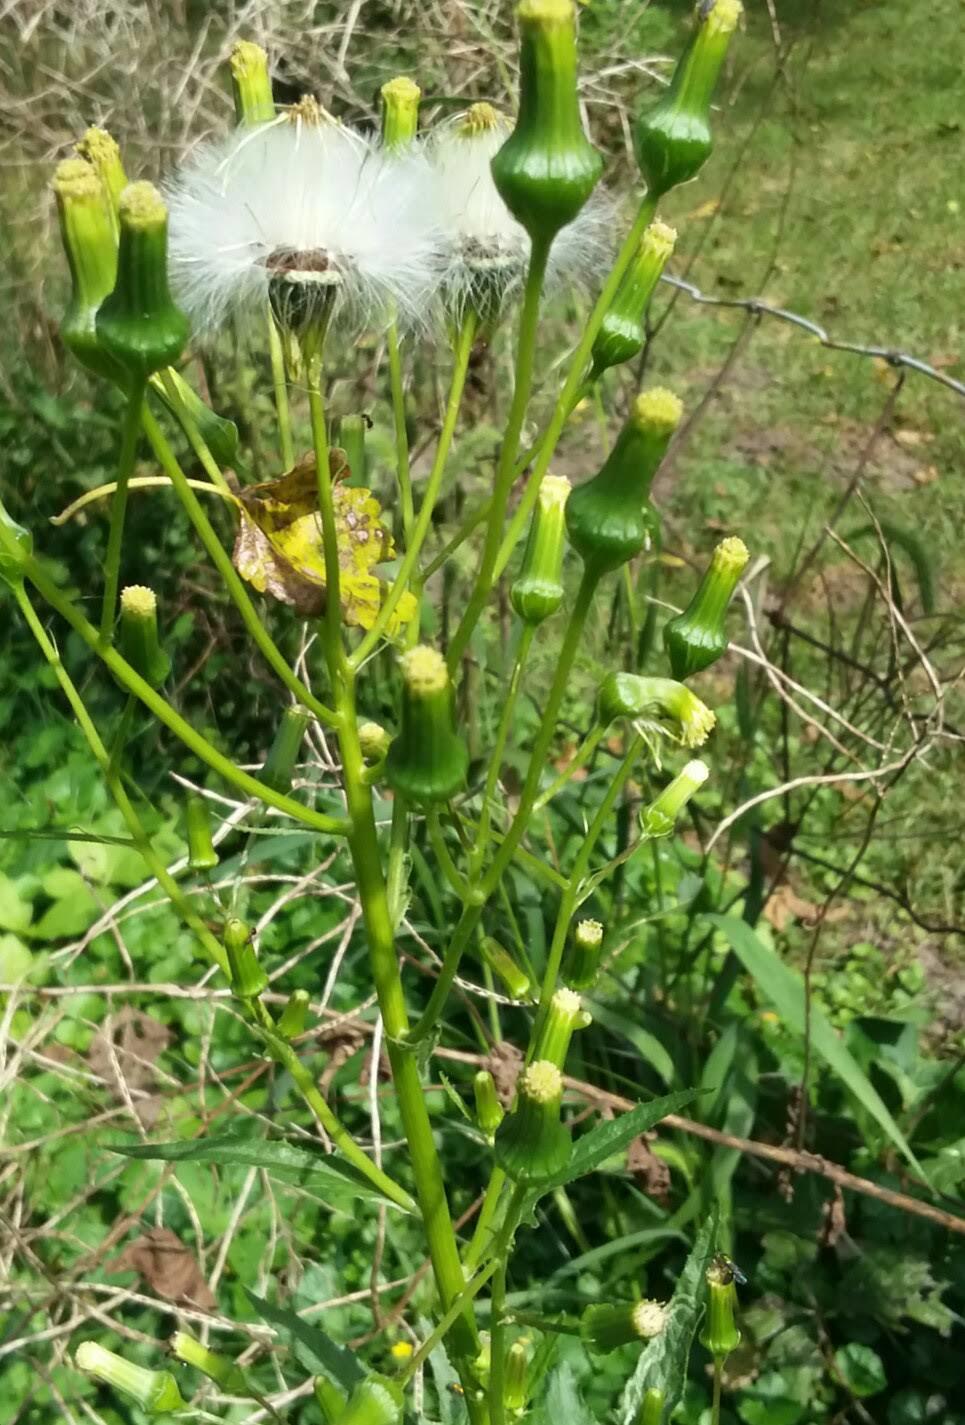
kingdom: Plantae
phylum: Tracheophyta
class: Magnoliopsida
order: Asterales
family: Asteraceae
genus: Erechtites
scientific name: Erechtites hieraciifolius
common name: American burnweed
